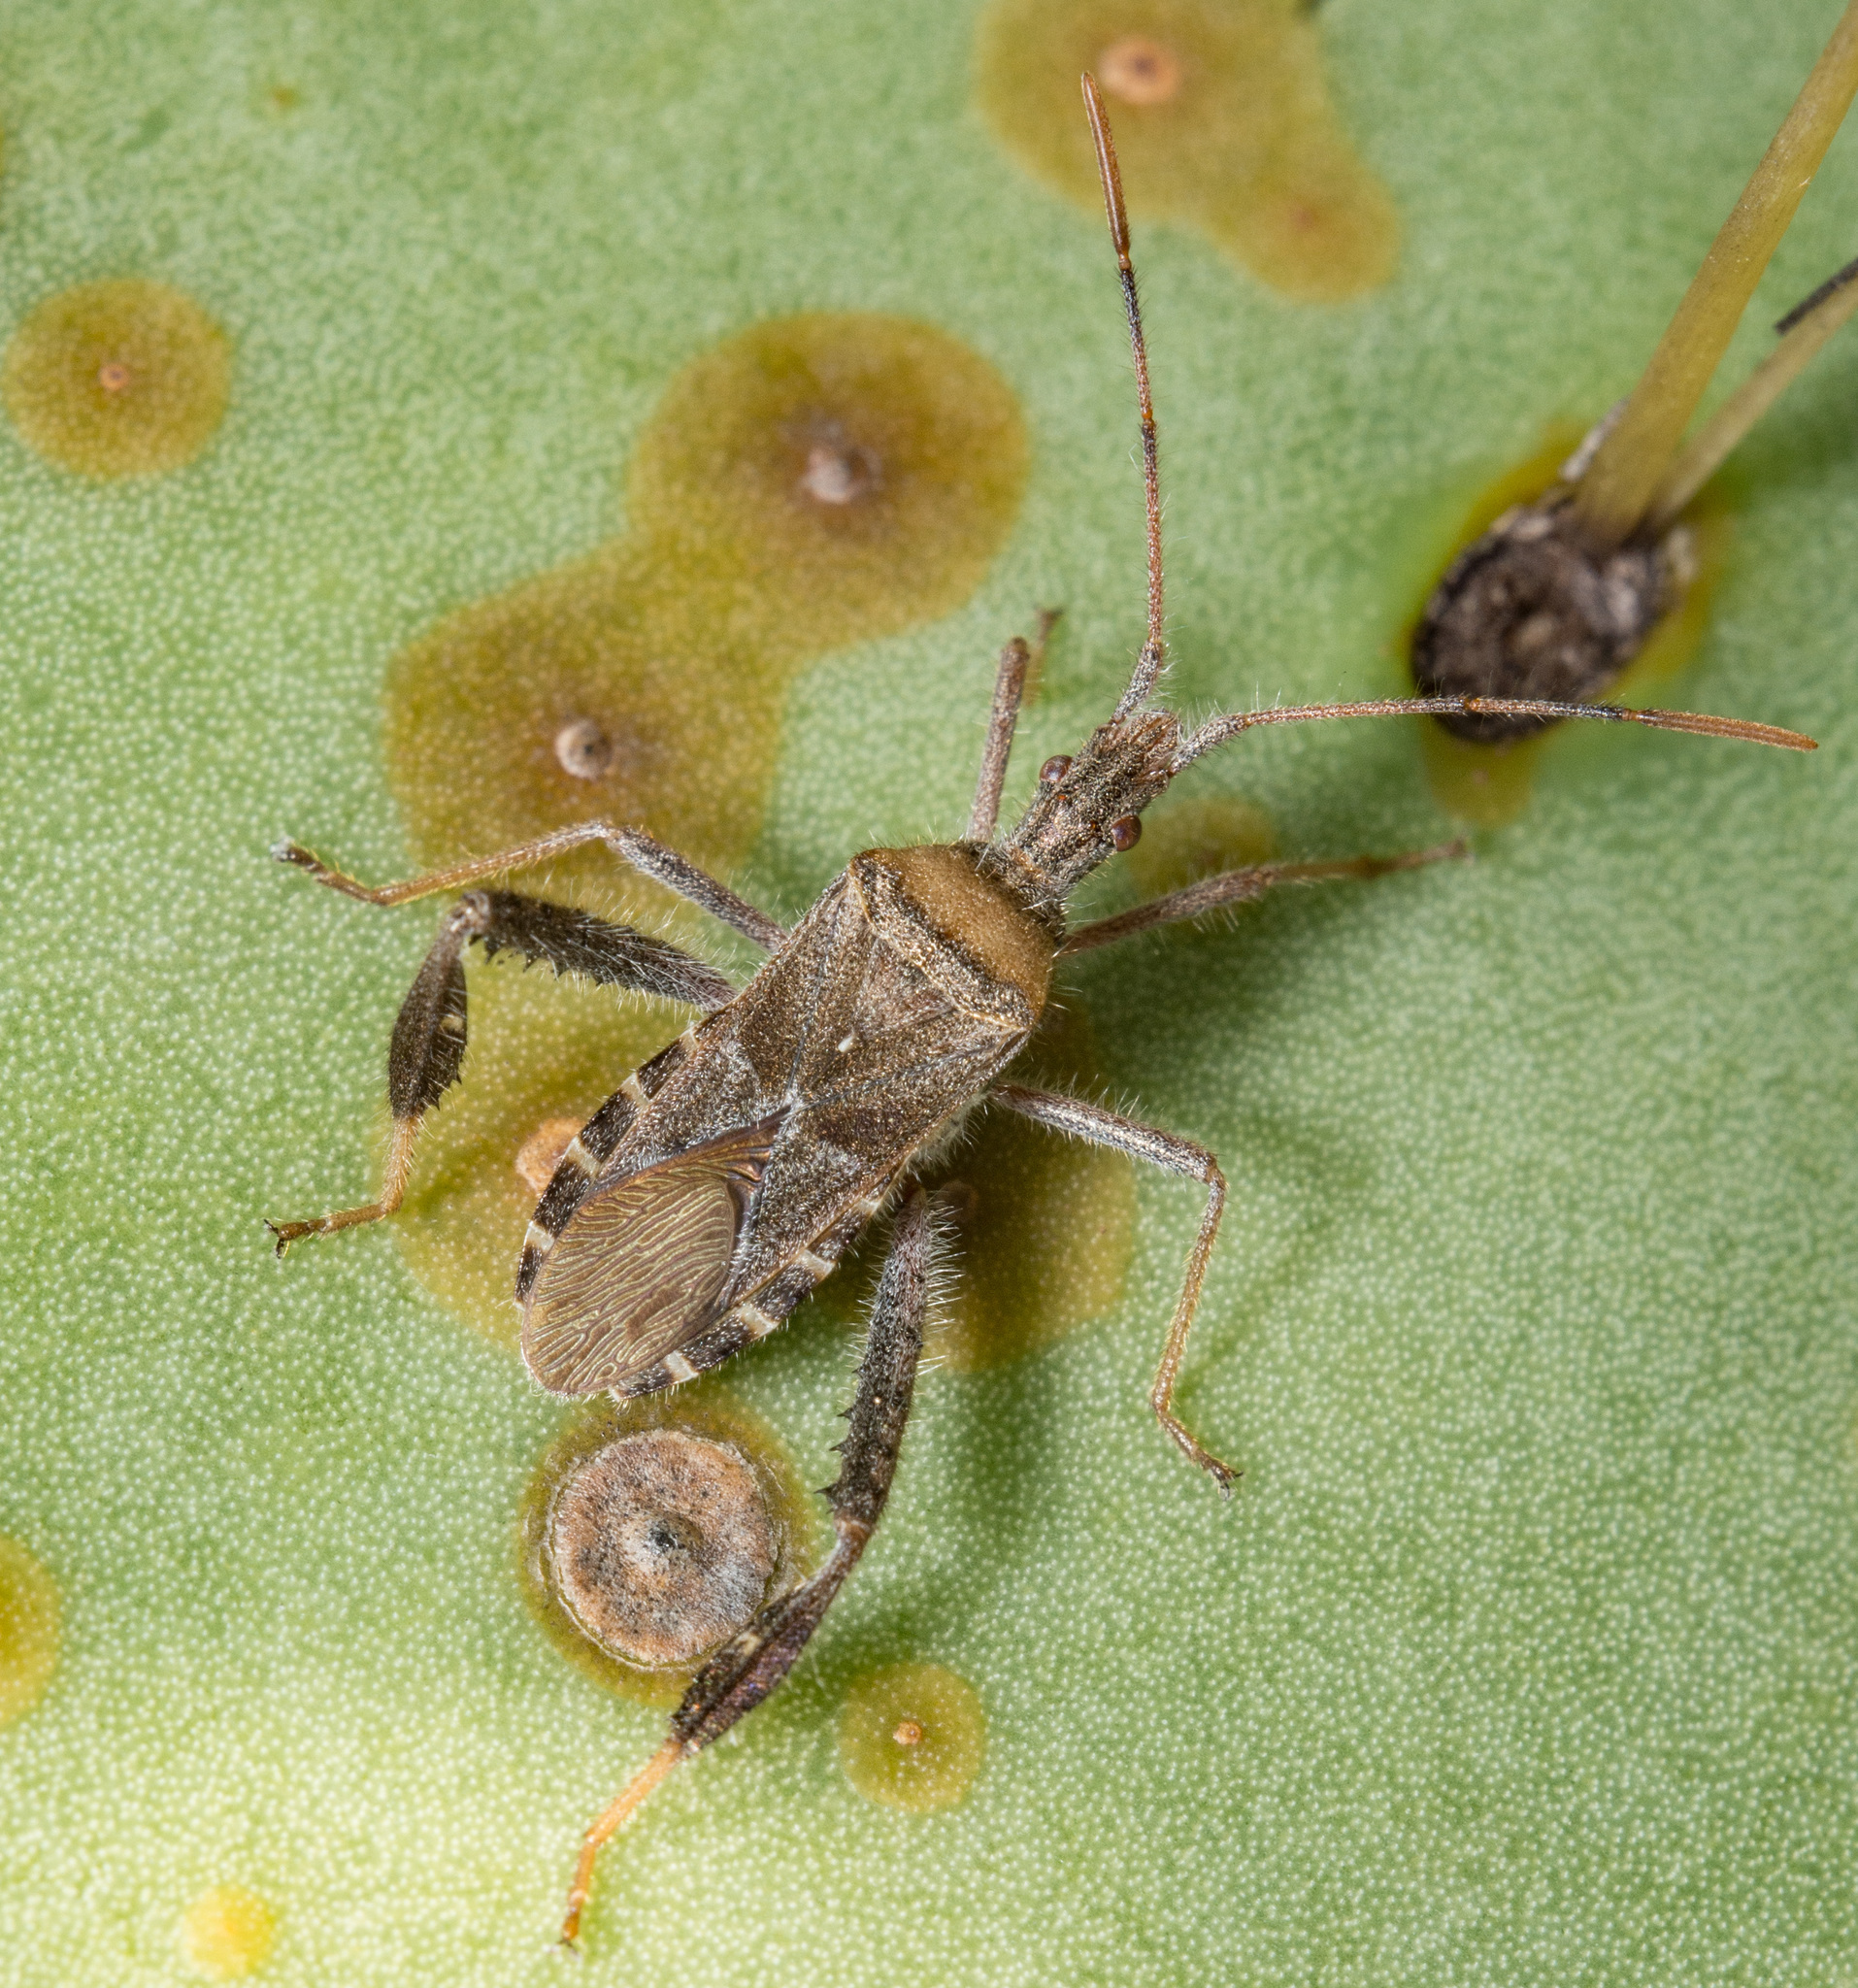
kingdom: Animalia
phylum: Arthropoda
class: Insecta
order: Hemiptera
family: Coreidae
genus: Narnia
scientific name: Narnia femorata
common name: Leaf-footed cactus bug
